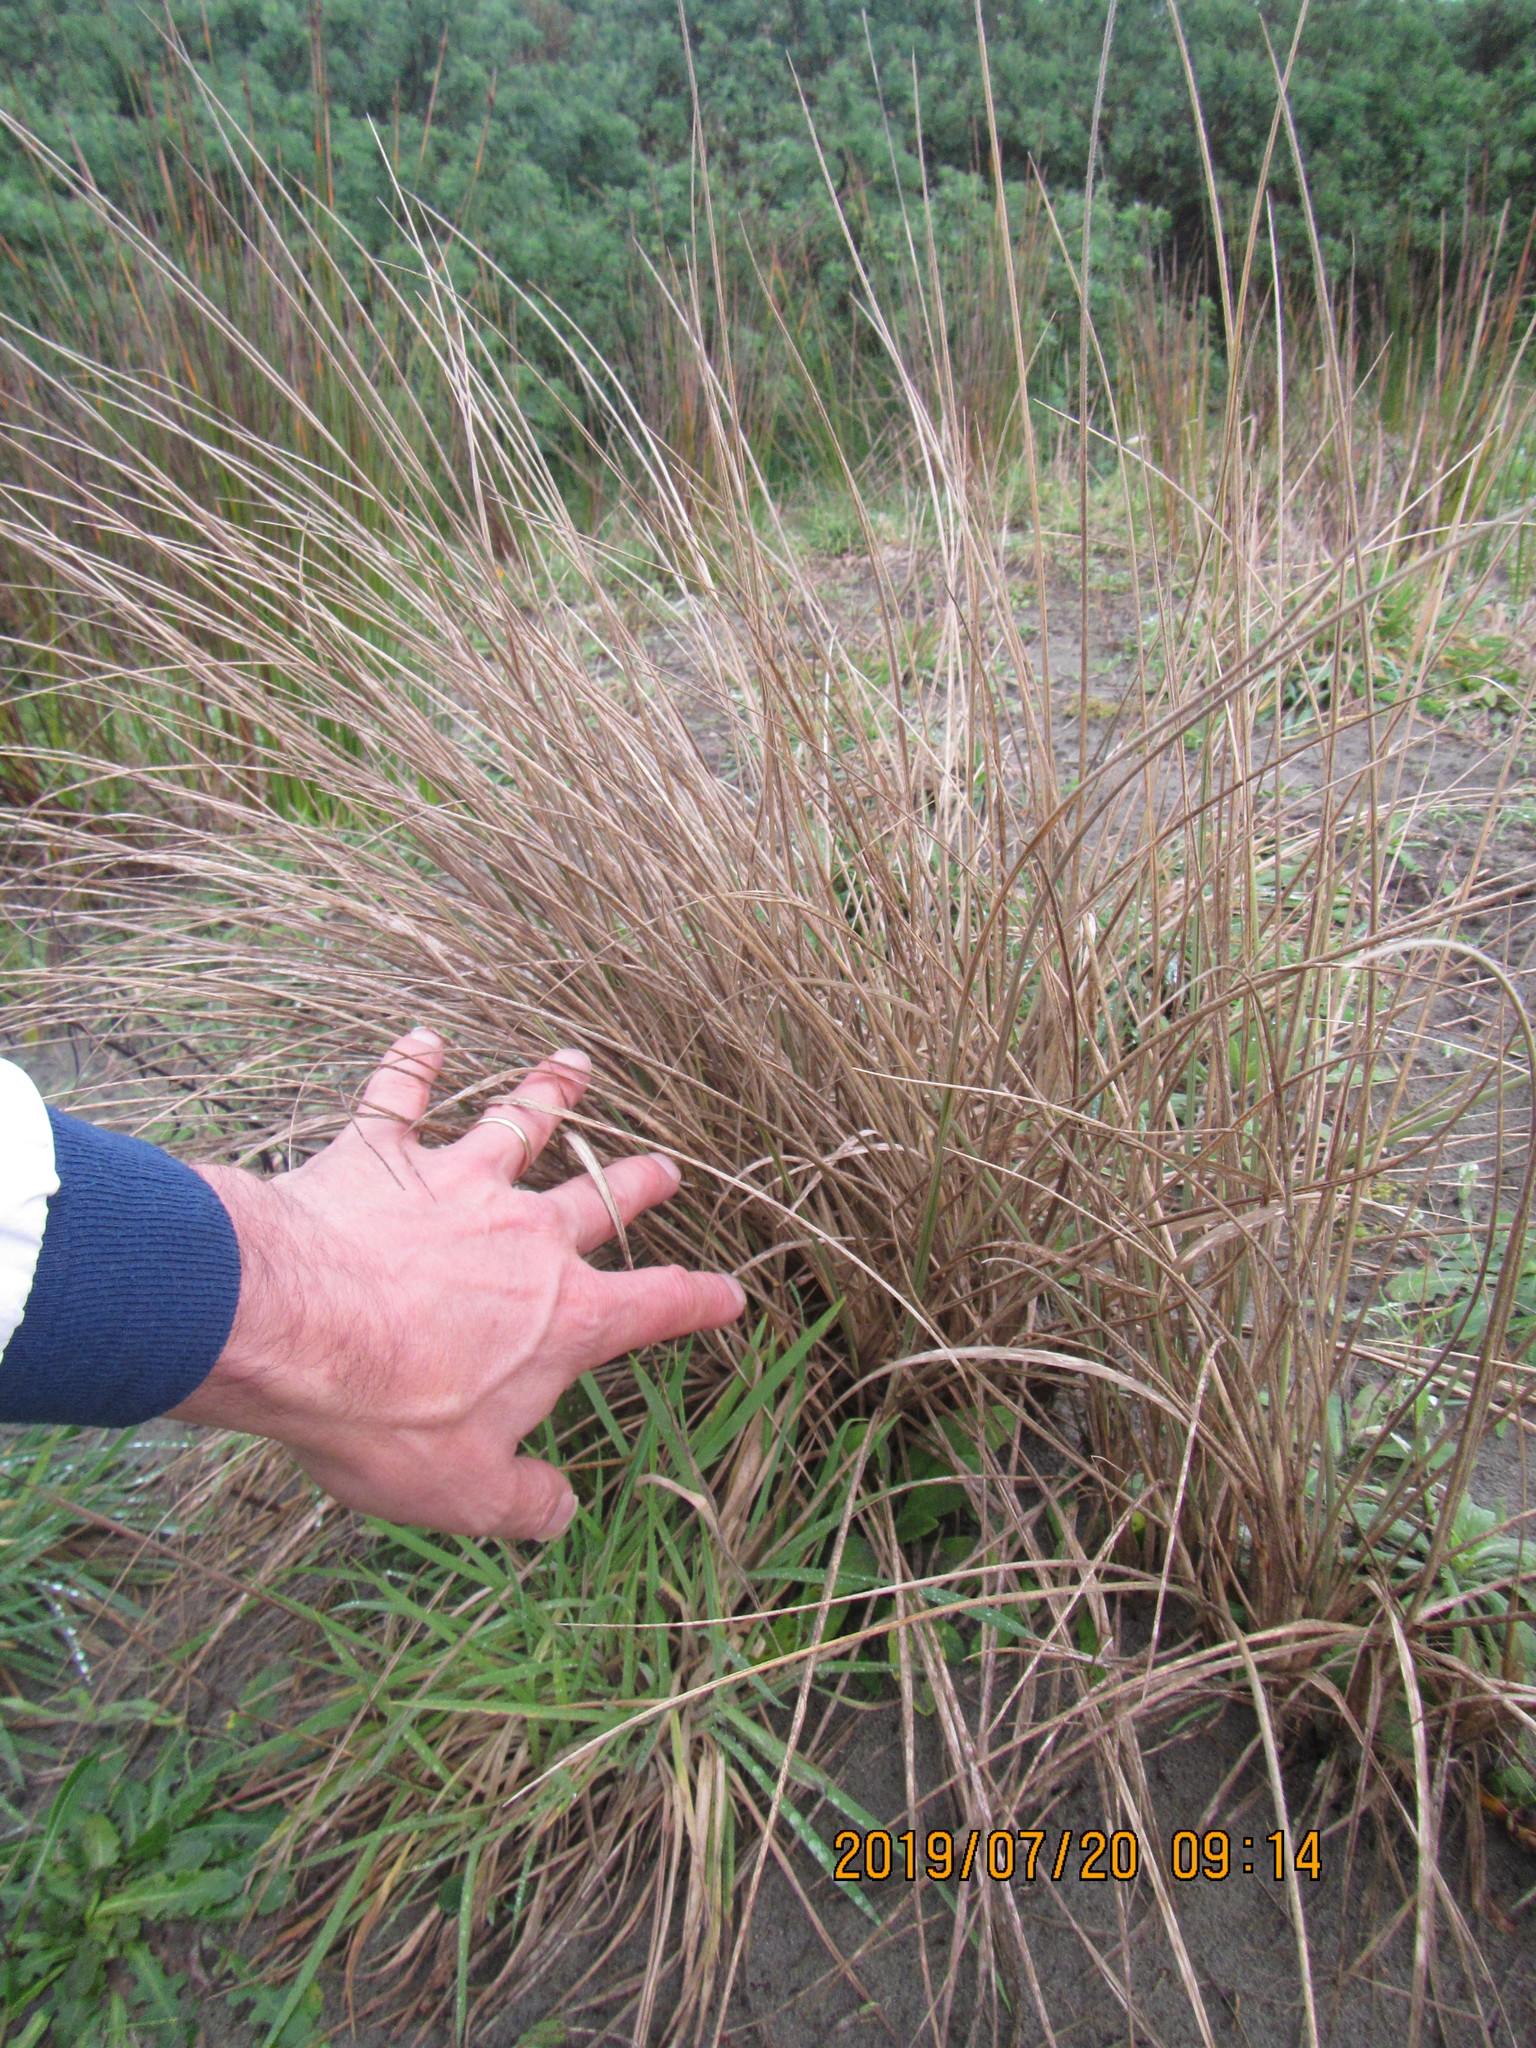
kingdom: Plantae
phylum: Tracheophyta
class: Liliopsida
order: Poales
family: Poaceae
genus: Spinifex
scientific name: Spinifex sericeus
